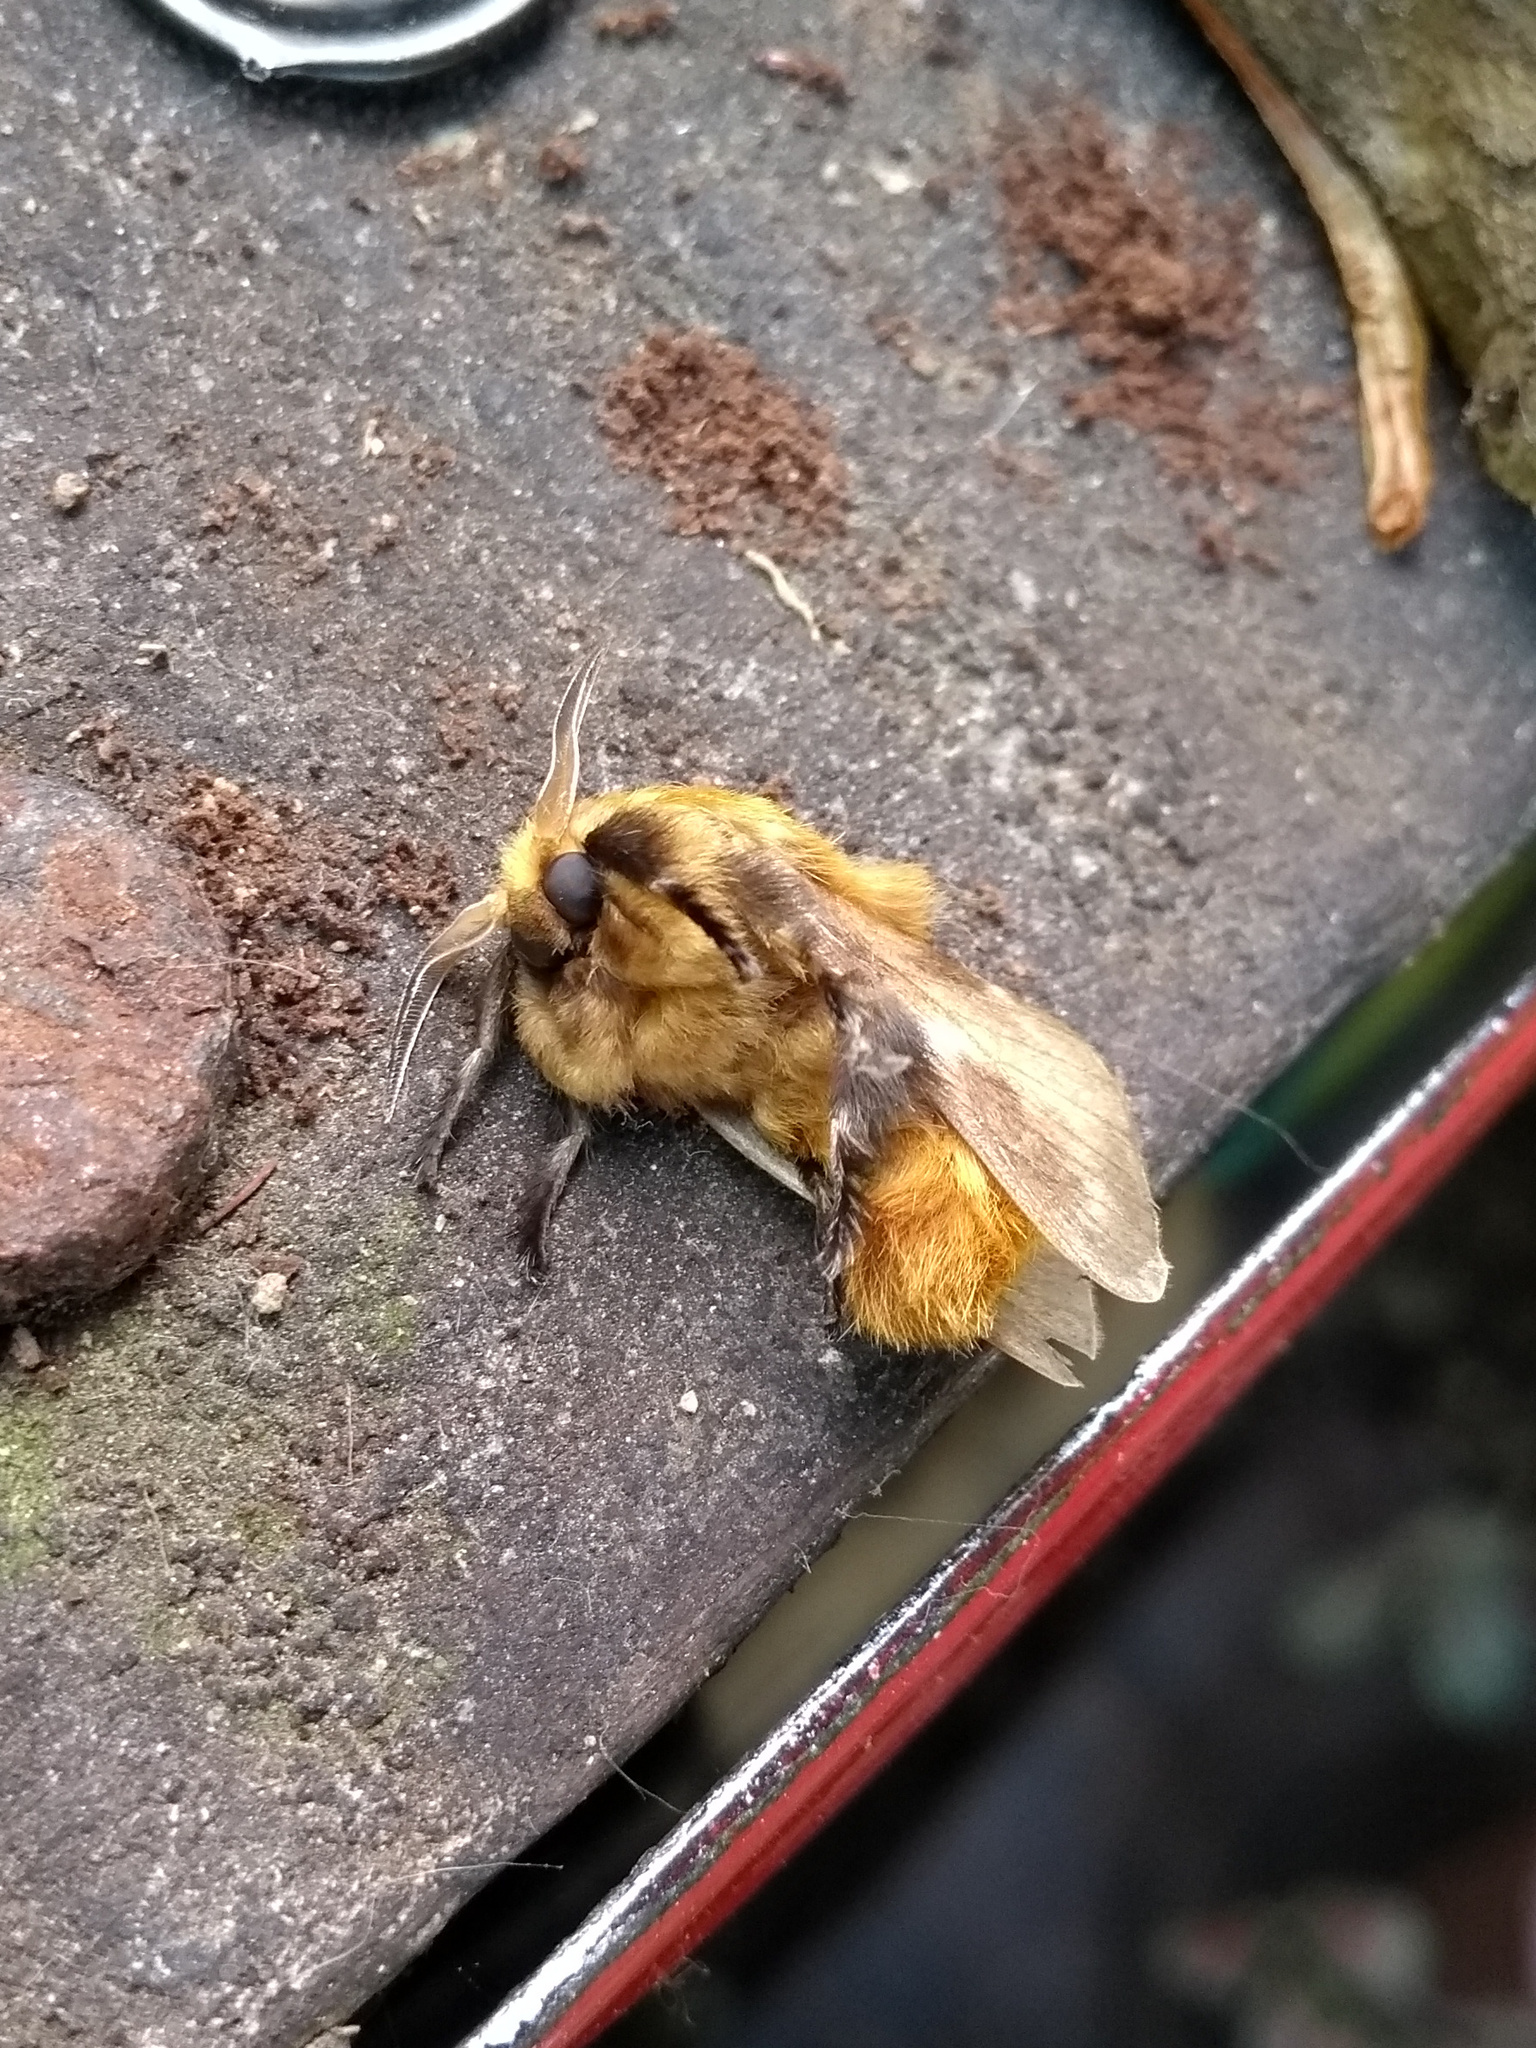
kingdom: Animalia
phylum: Arthropoda
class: Insecta
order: Lepidoptera
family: Megalopygidae
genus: Megalopyge
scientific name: Megalopyge undulata
